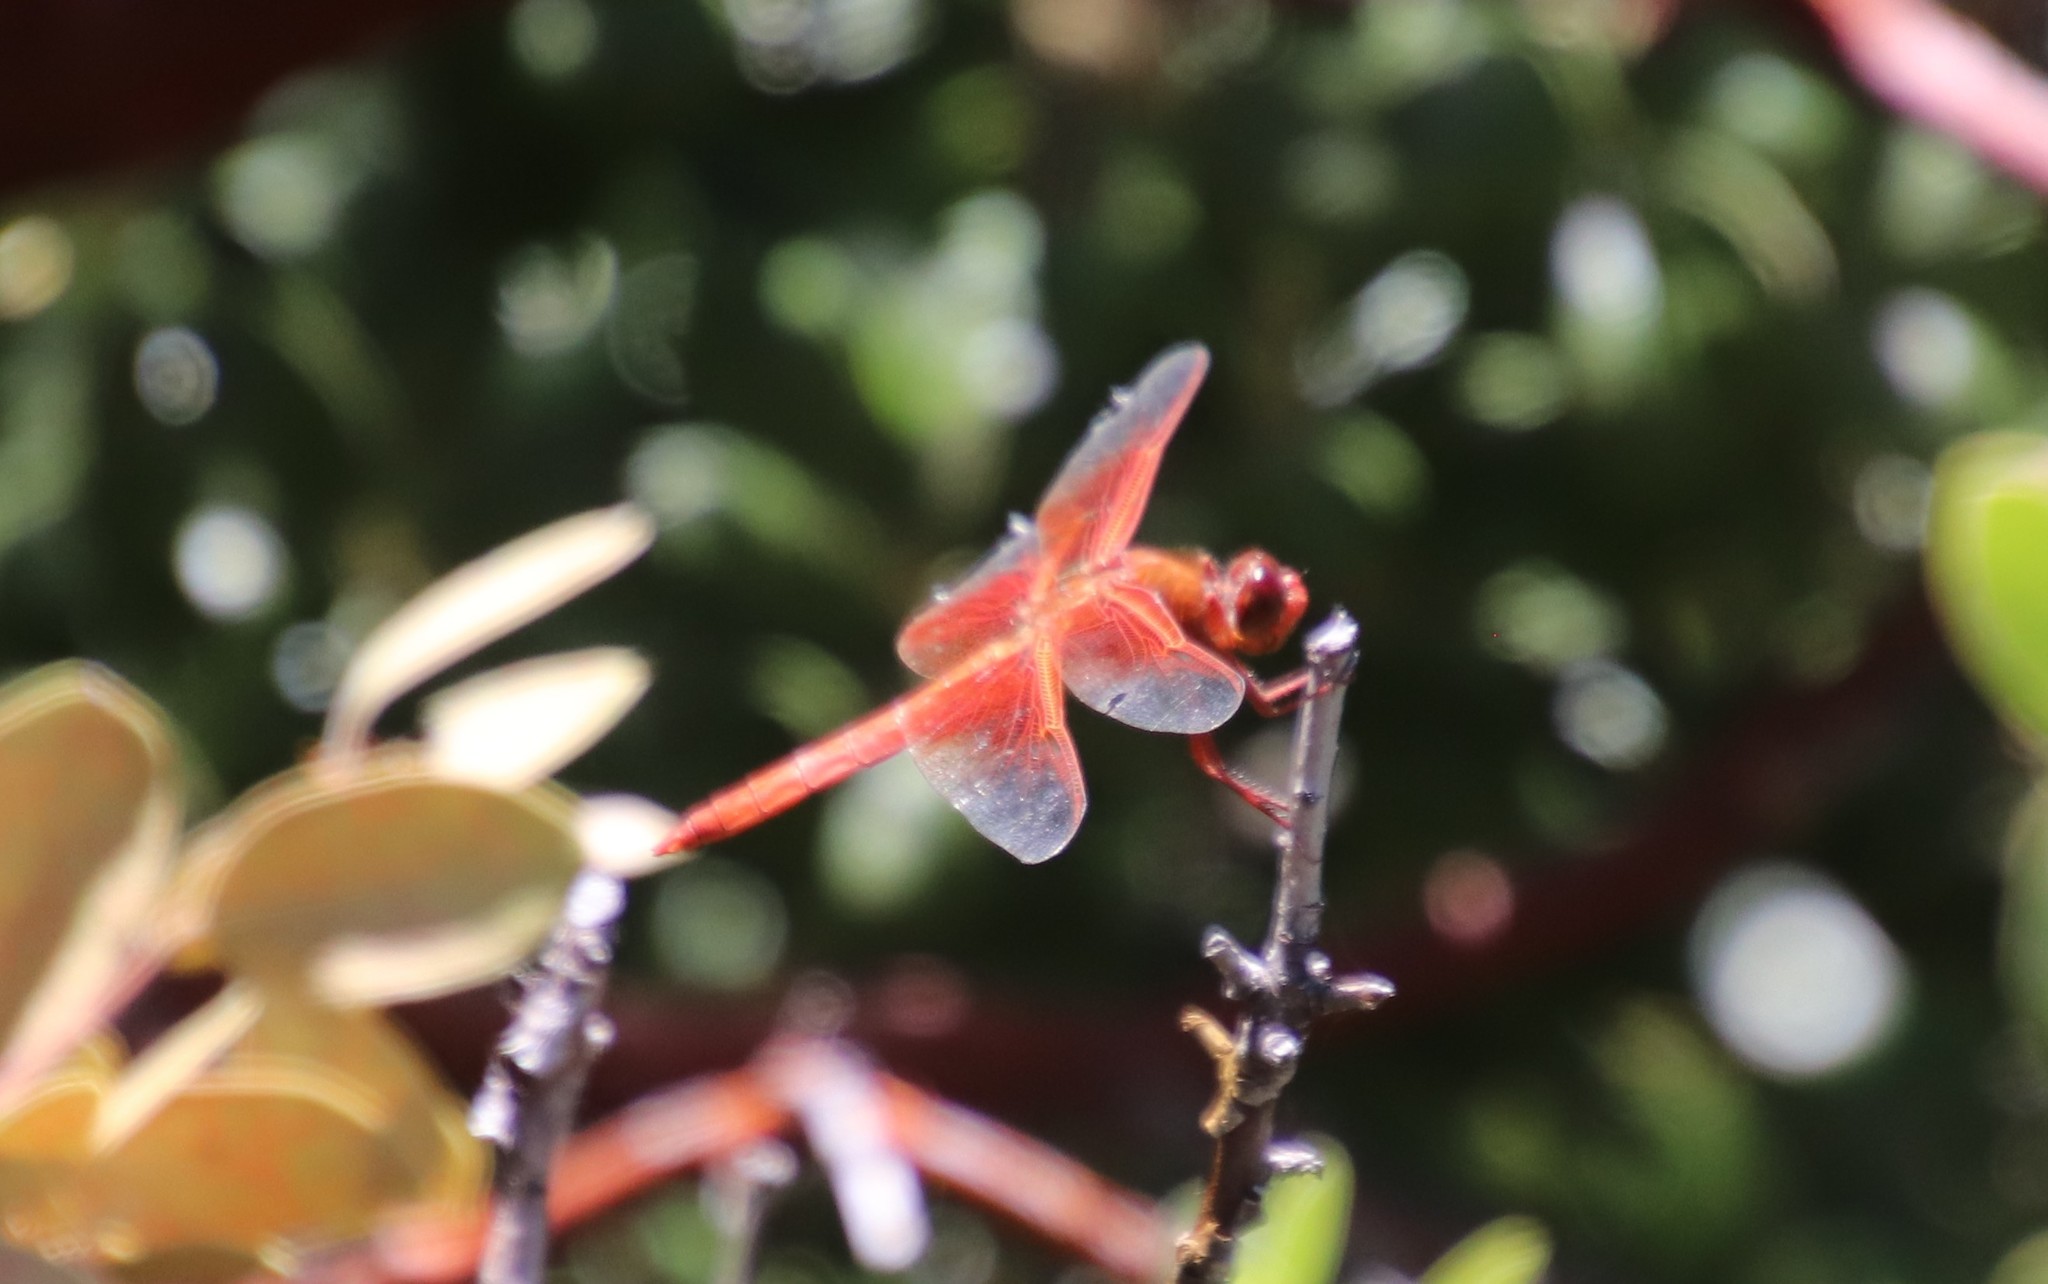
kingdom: Animalia
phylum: Arthropoda
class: Insecta
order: Odonata
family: Libellulidae
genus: Libellula
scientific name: Libellula saturata
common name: Flame skimmer
